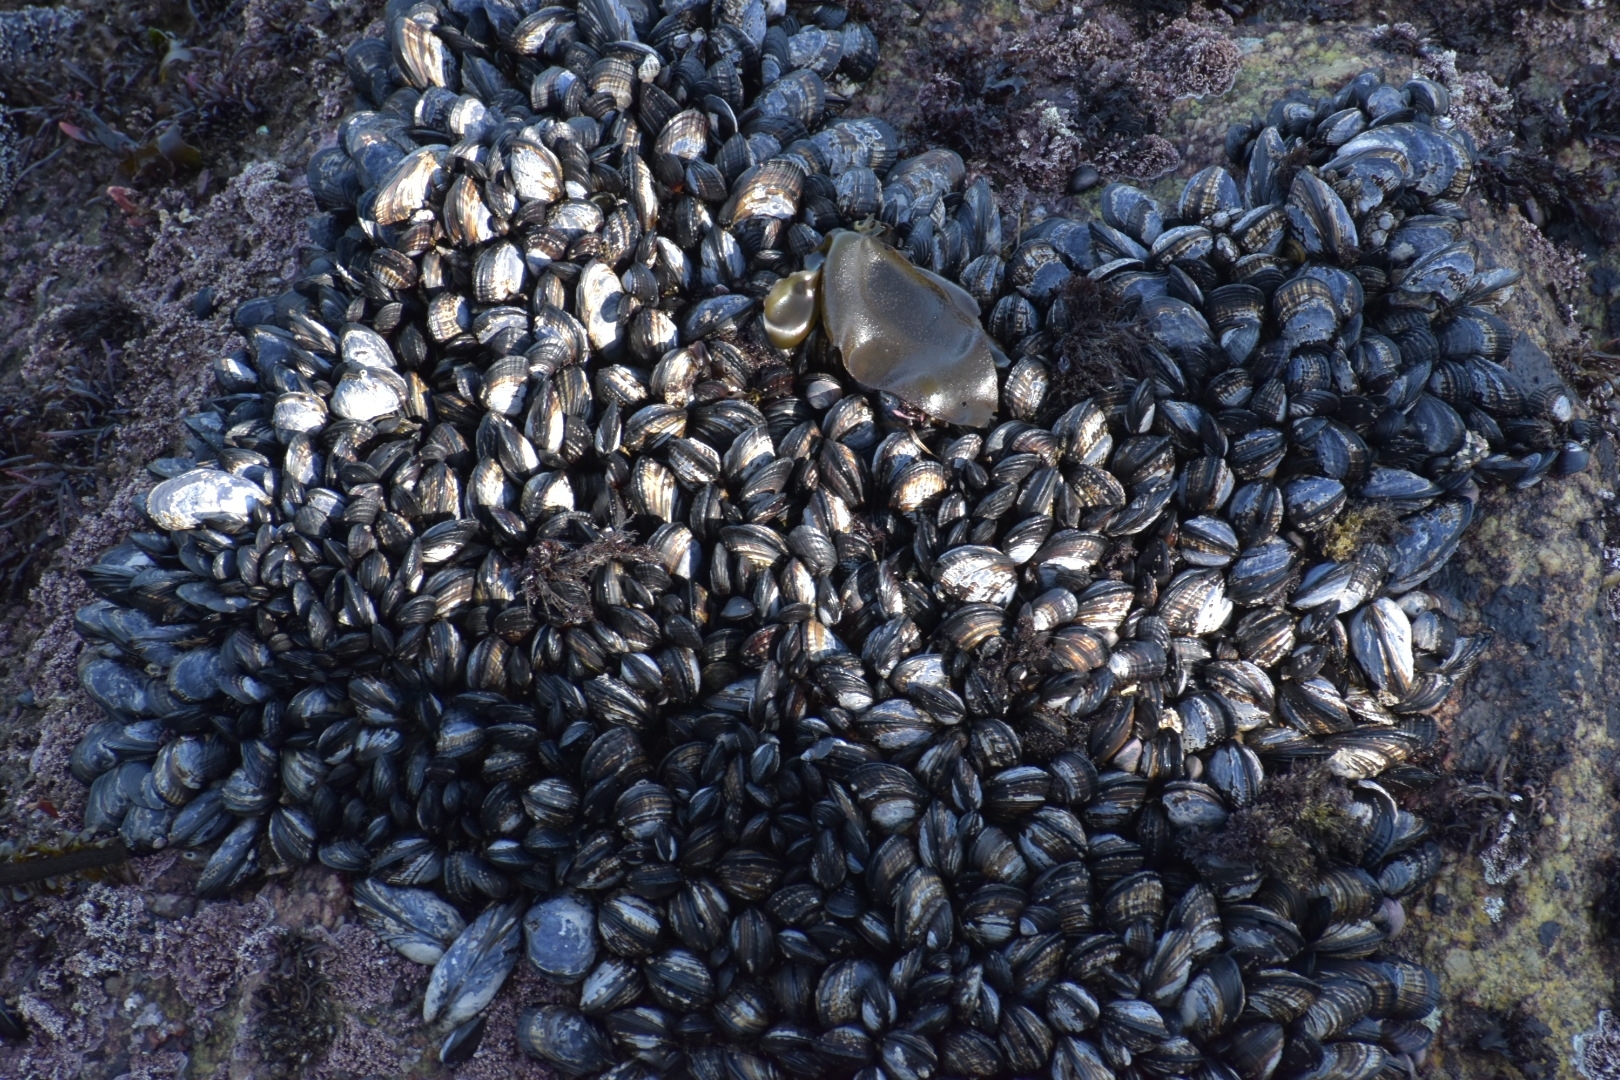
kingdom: Animalia
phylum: Mollusca
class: Bivalvia
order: Mytilida
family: Mytilidae
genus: Mytilus
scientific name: Mytilus californianus
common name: California mussel
